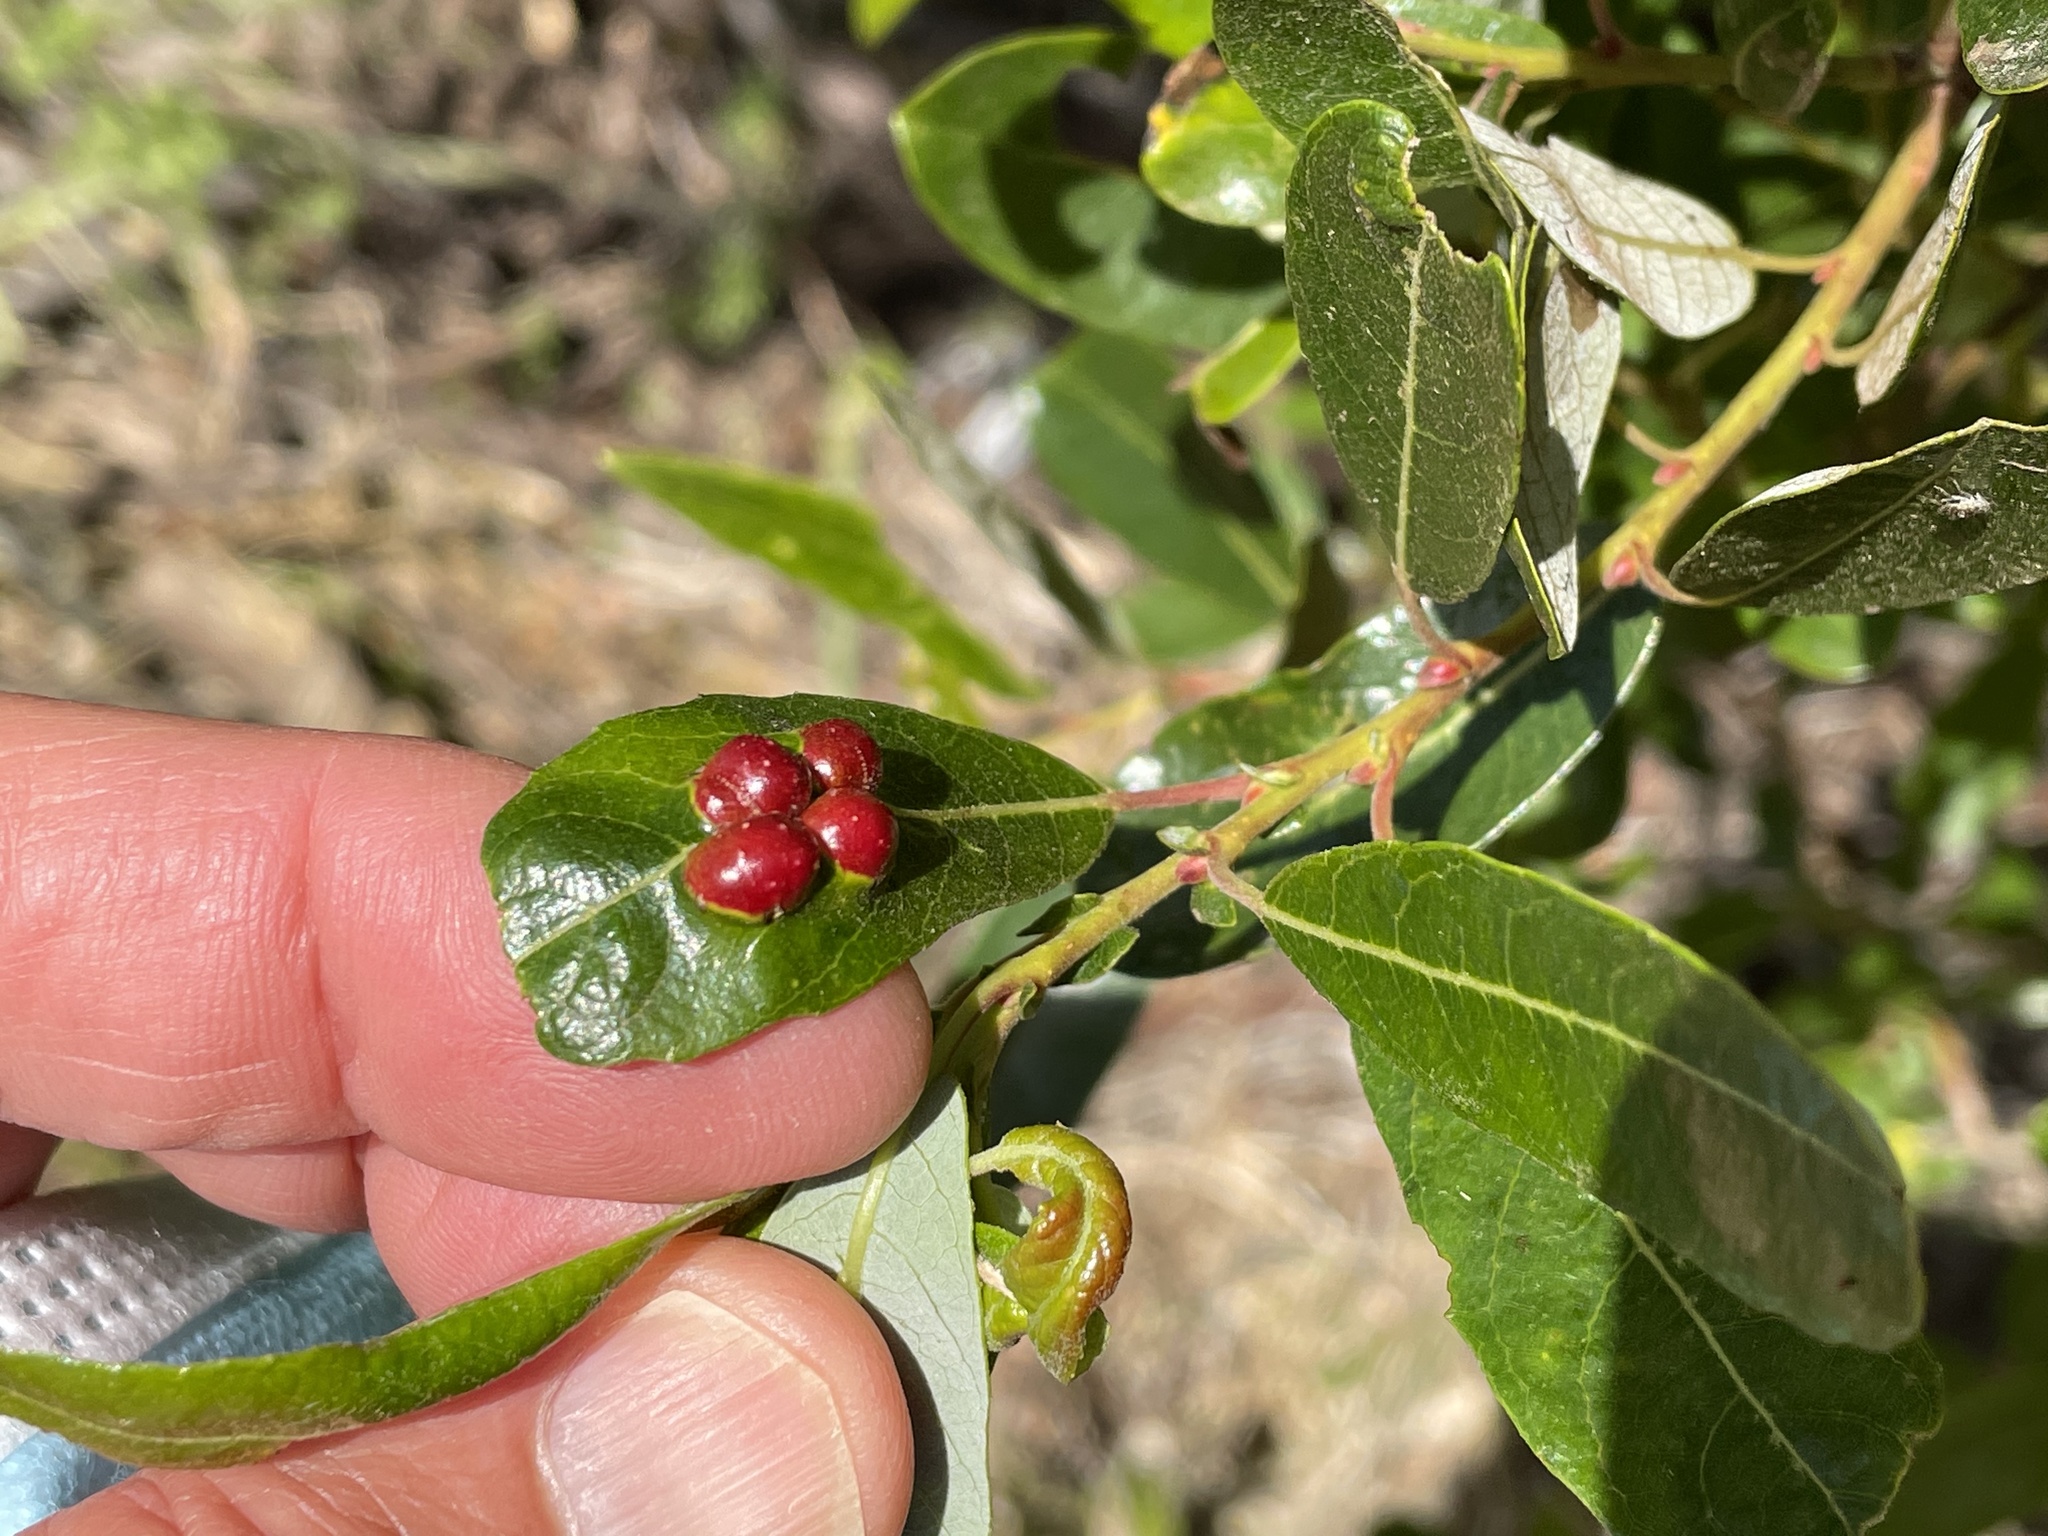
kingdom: Animalia
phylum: Arthropoda
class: Insecta
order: Hymenoptera
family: Tenthredinidae
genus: Euura
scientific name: Euura
